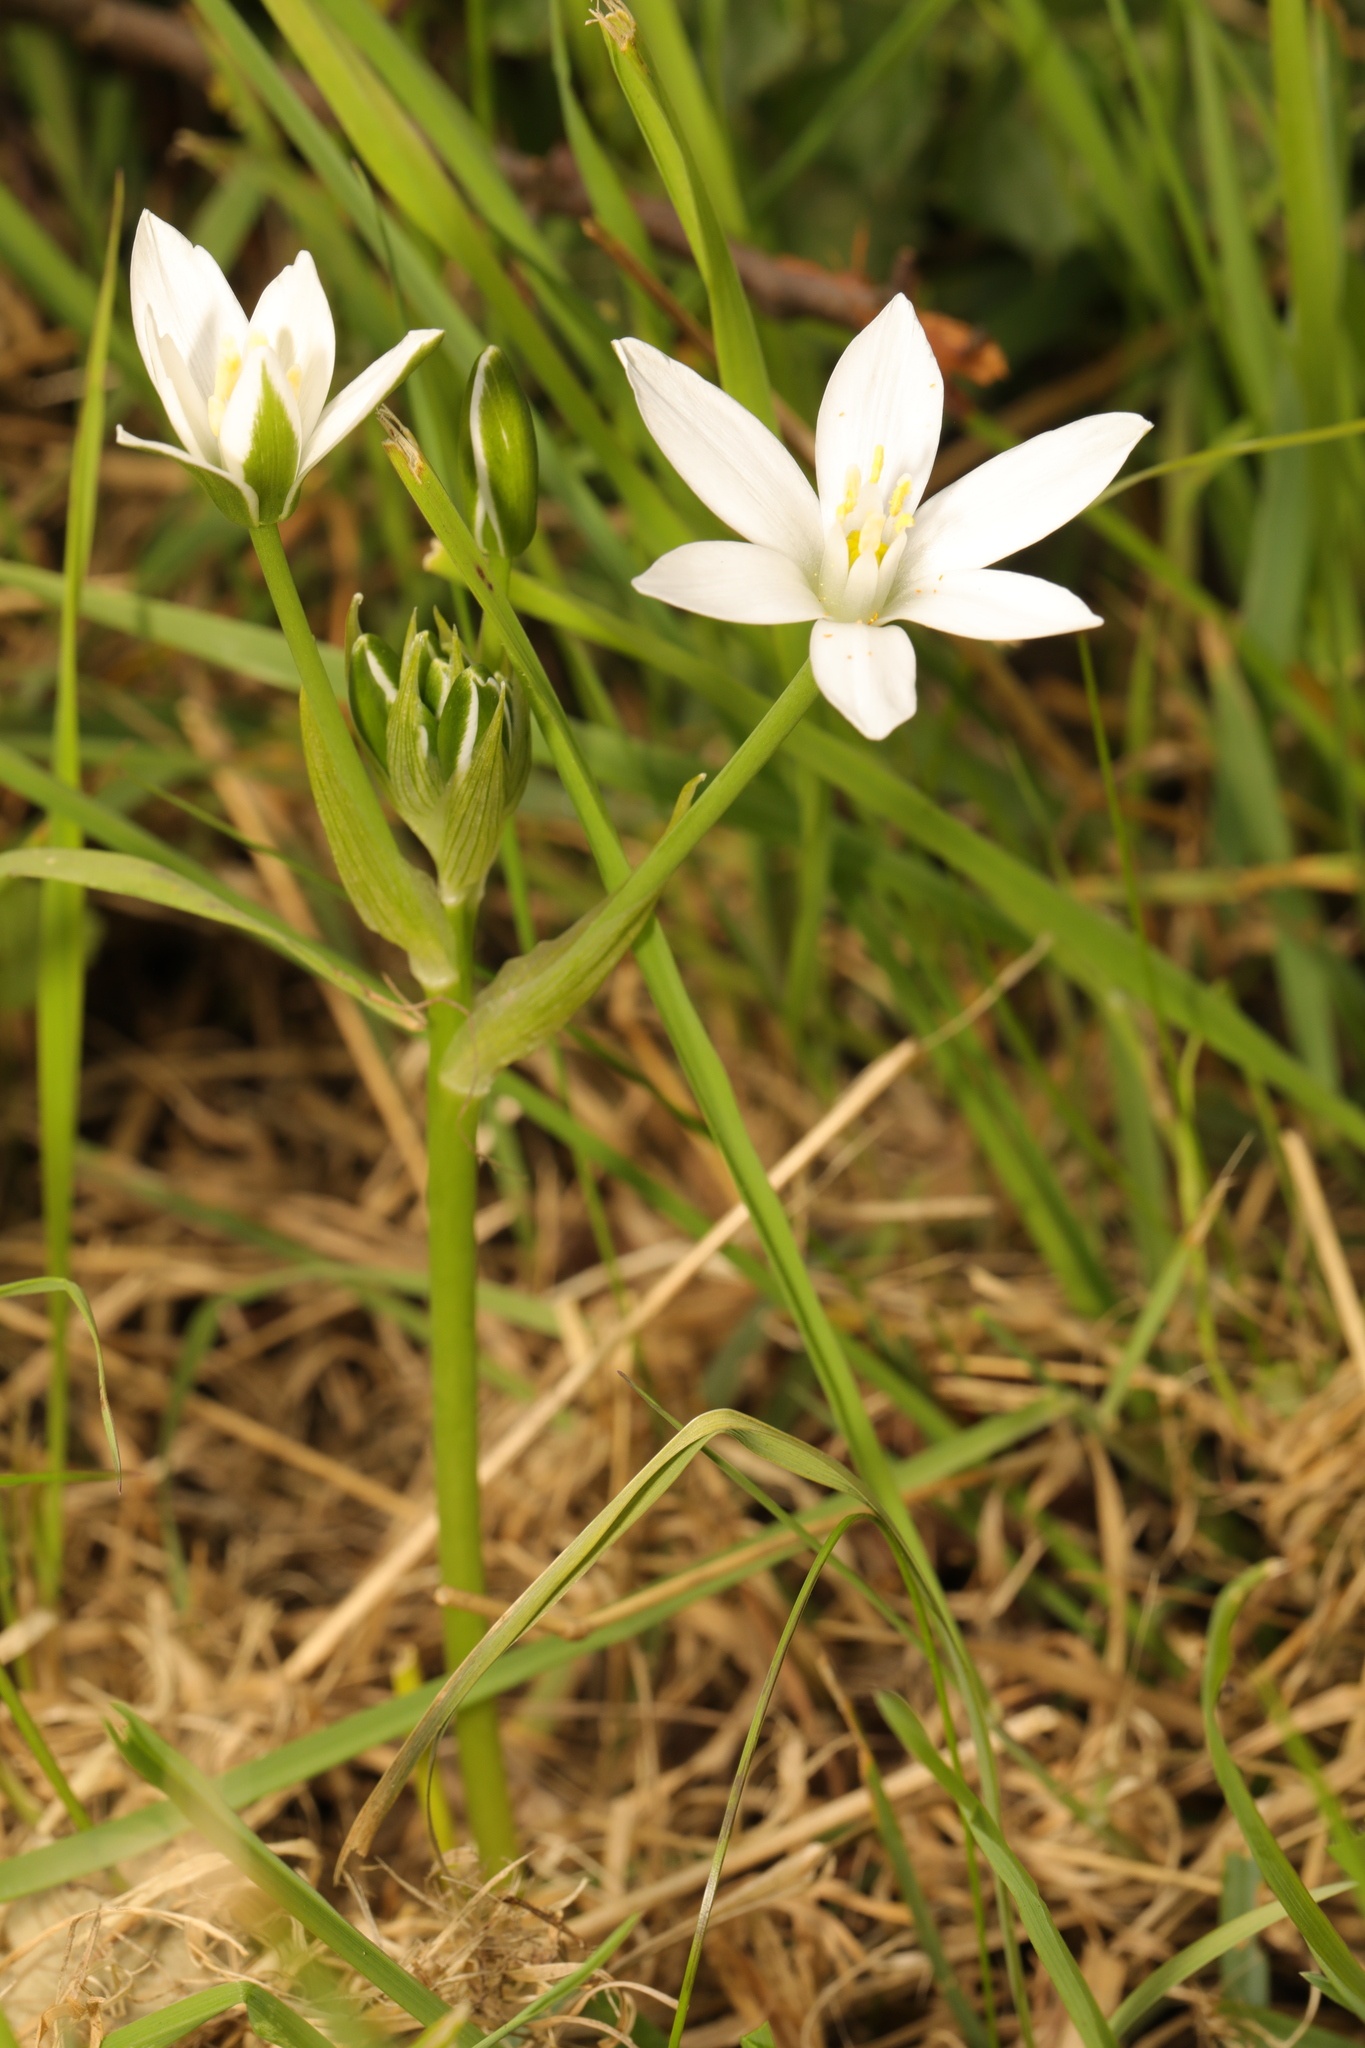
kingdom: Plantae
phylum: Tracheophyta
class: Liliopsida
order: Asparagales
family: Asparagaceae
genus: Ornithogalum
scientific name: Ornithogalum umbellatum
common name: Garden star-of-bethlehem
